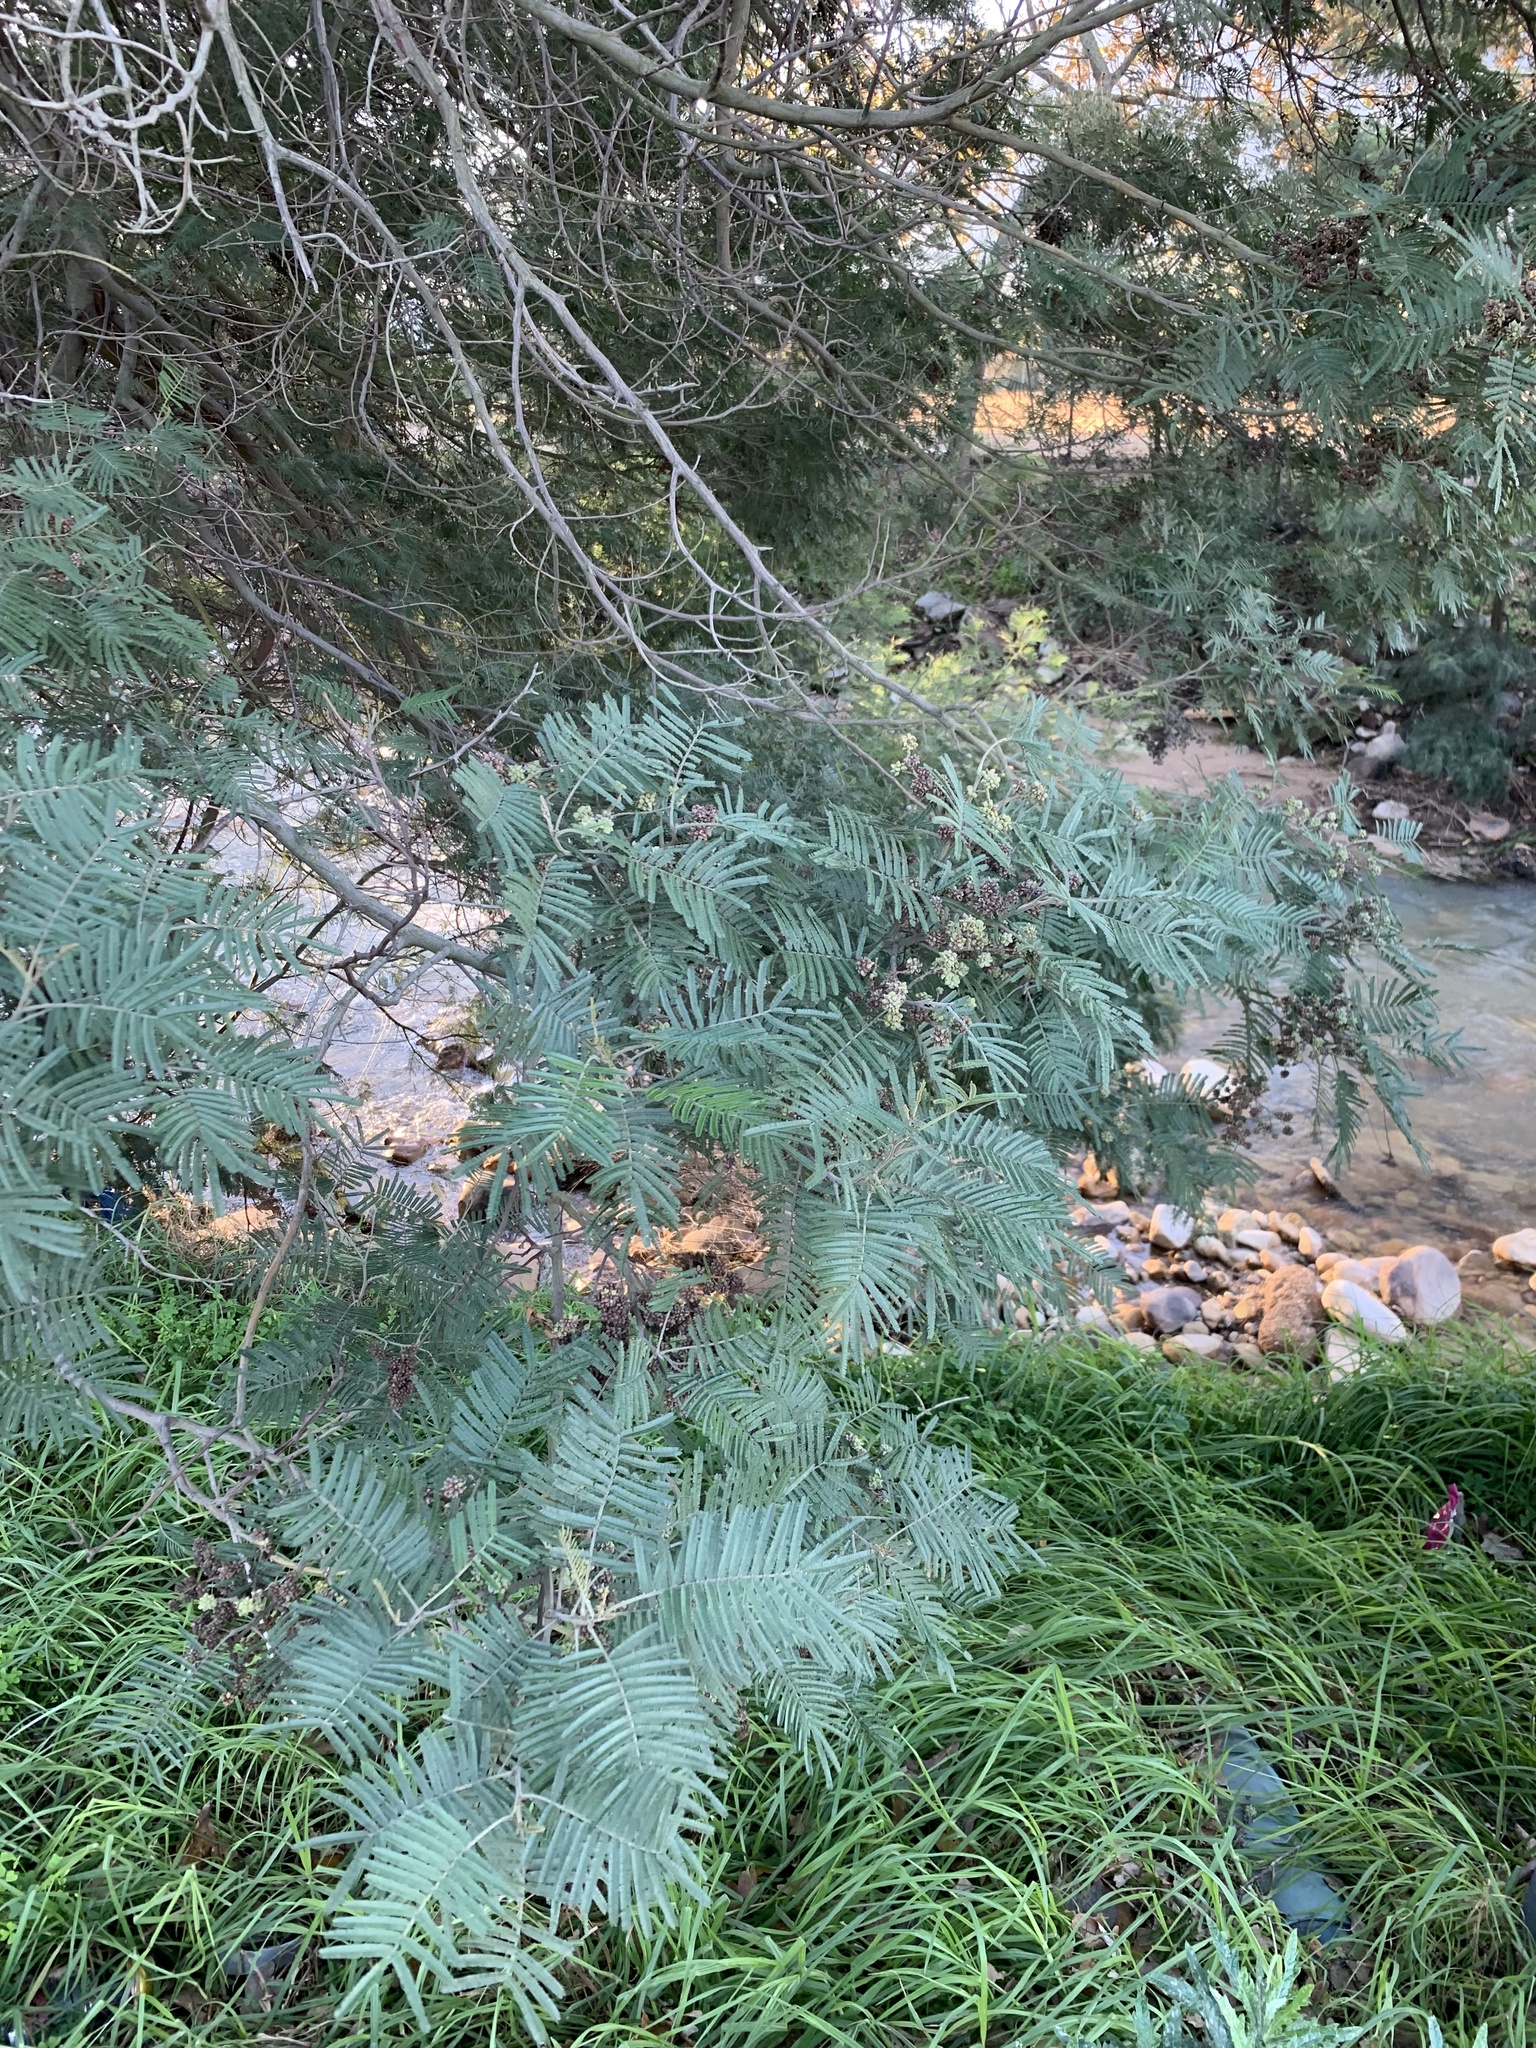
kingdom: Plantae
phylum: Tracheophyta
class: Magnoliopsida
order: Fabales
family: Fabaceae
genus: Acacia
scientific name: Acacia mearnsii
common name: Black wattle
